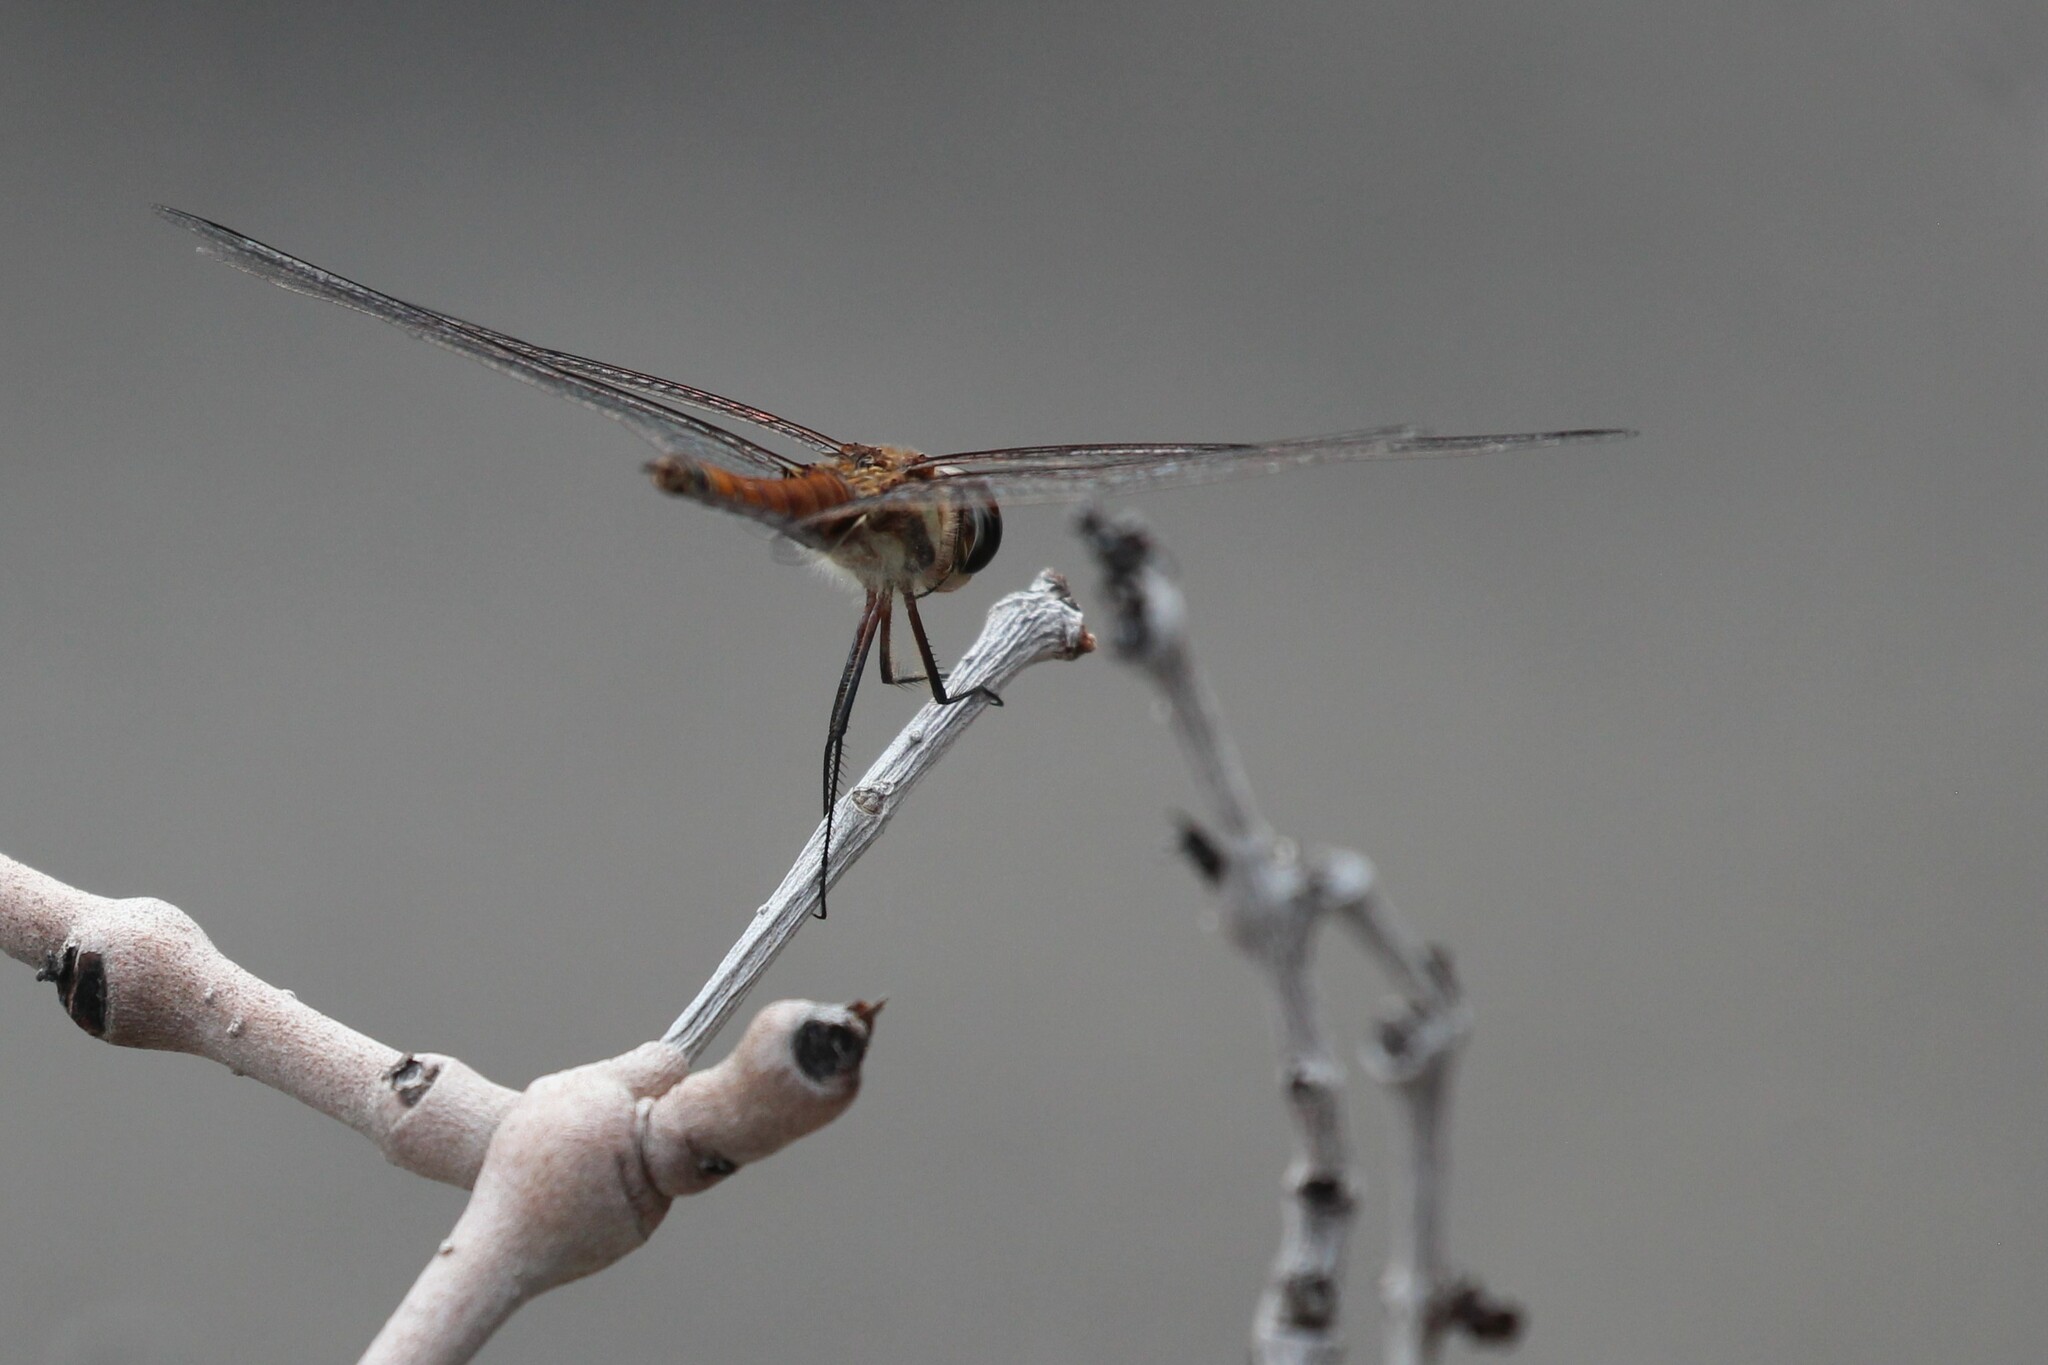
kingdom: Animalia
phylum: Arthropoda
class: Insecta
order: Odonata
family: Libellulidae
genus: Tramea
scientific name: Tramea darwini
